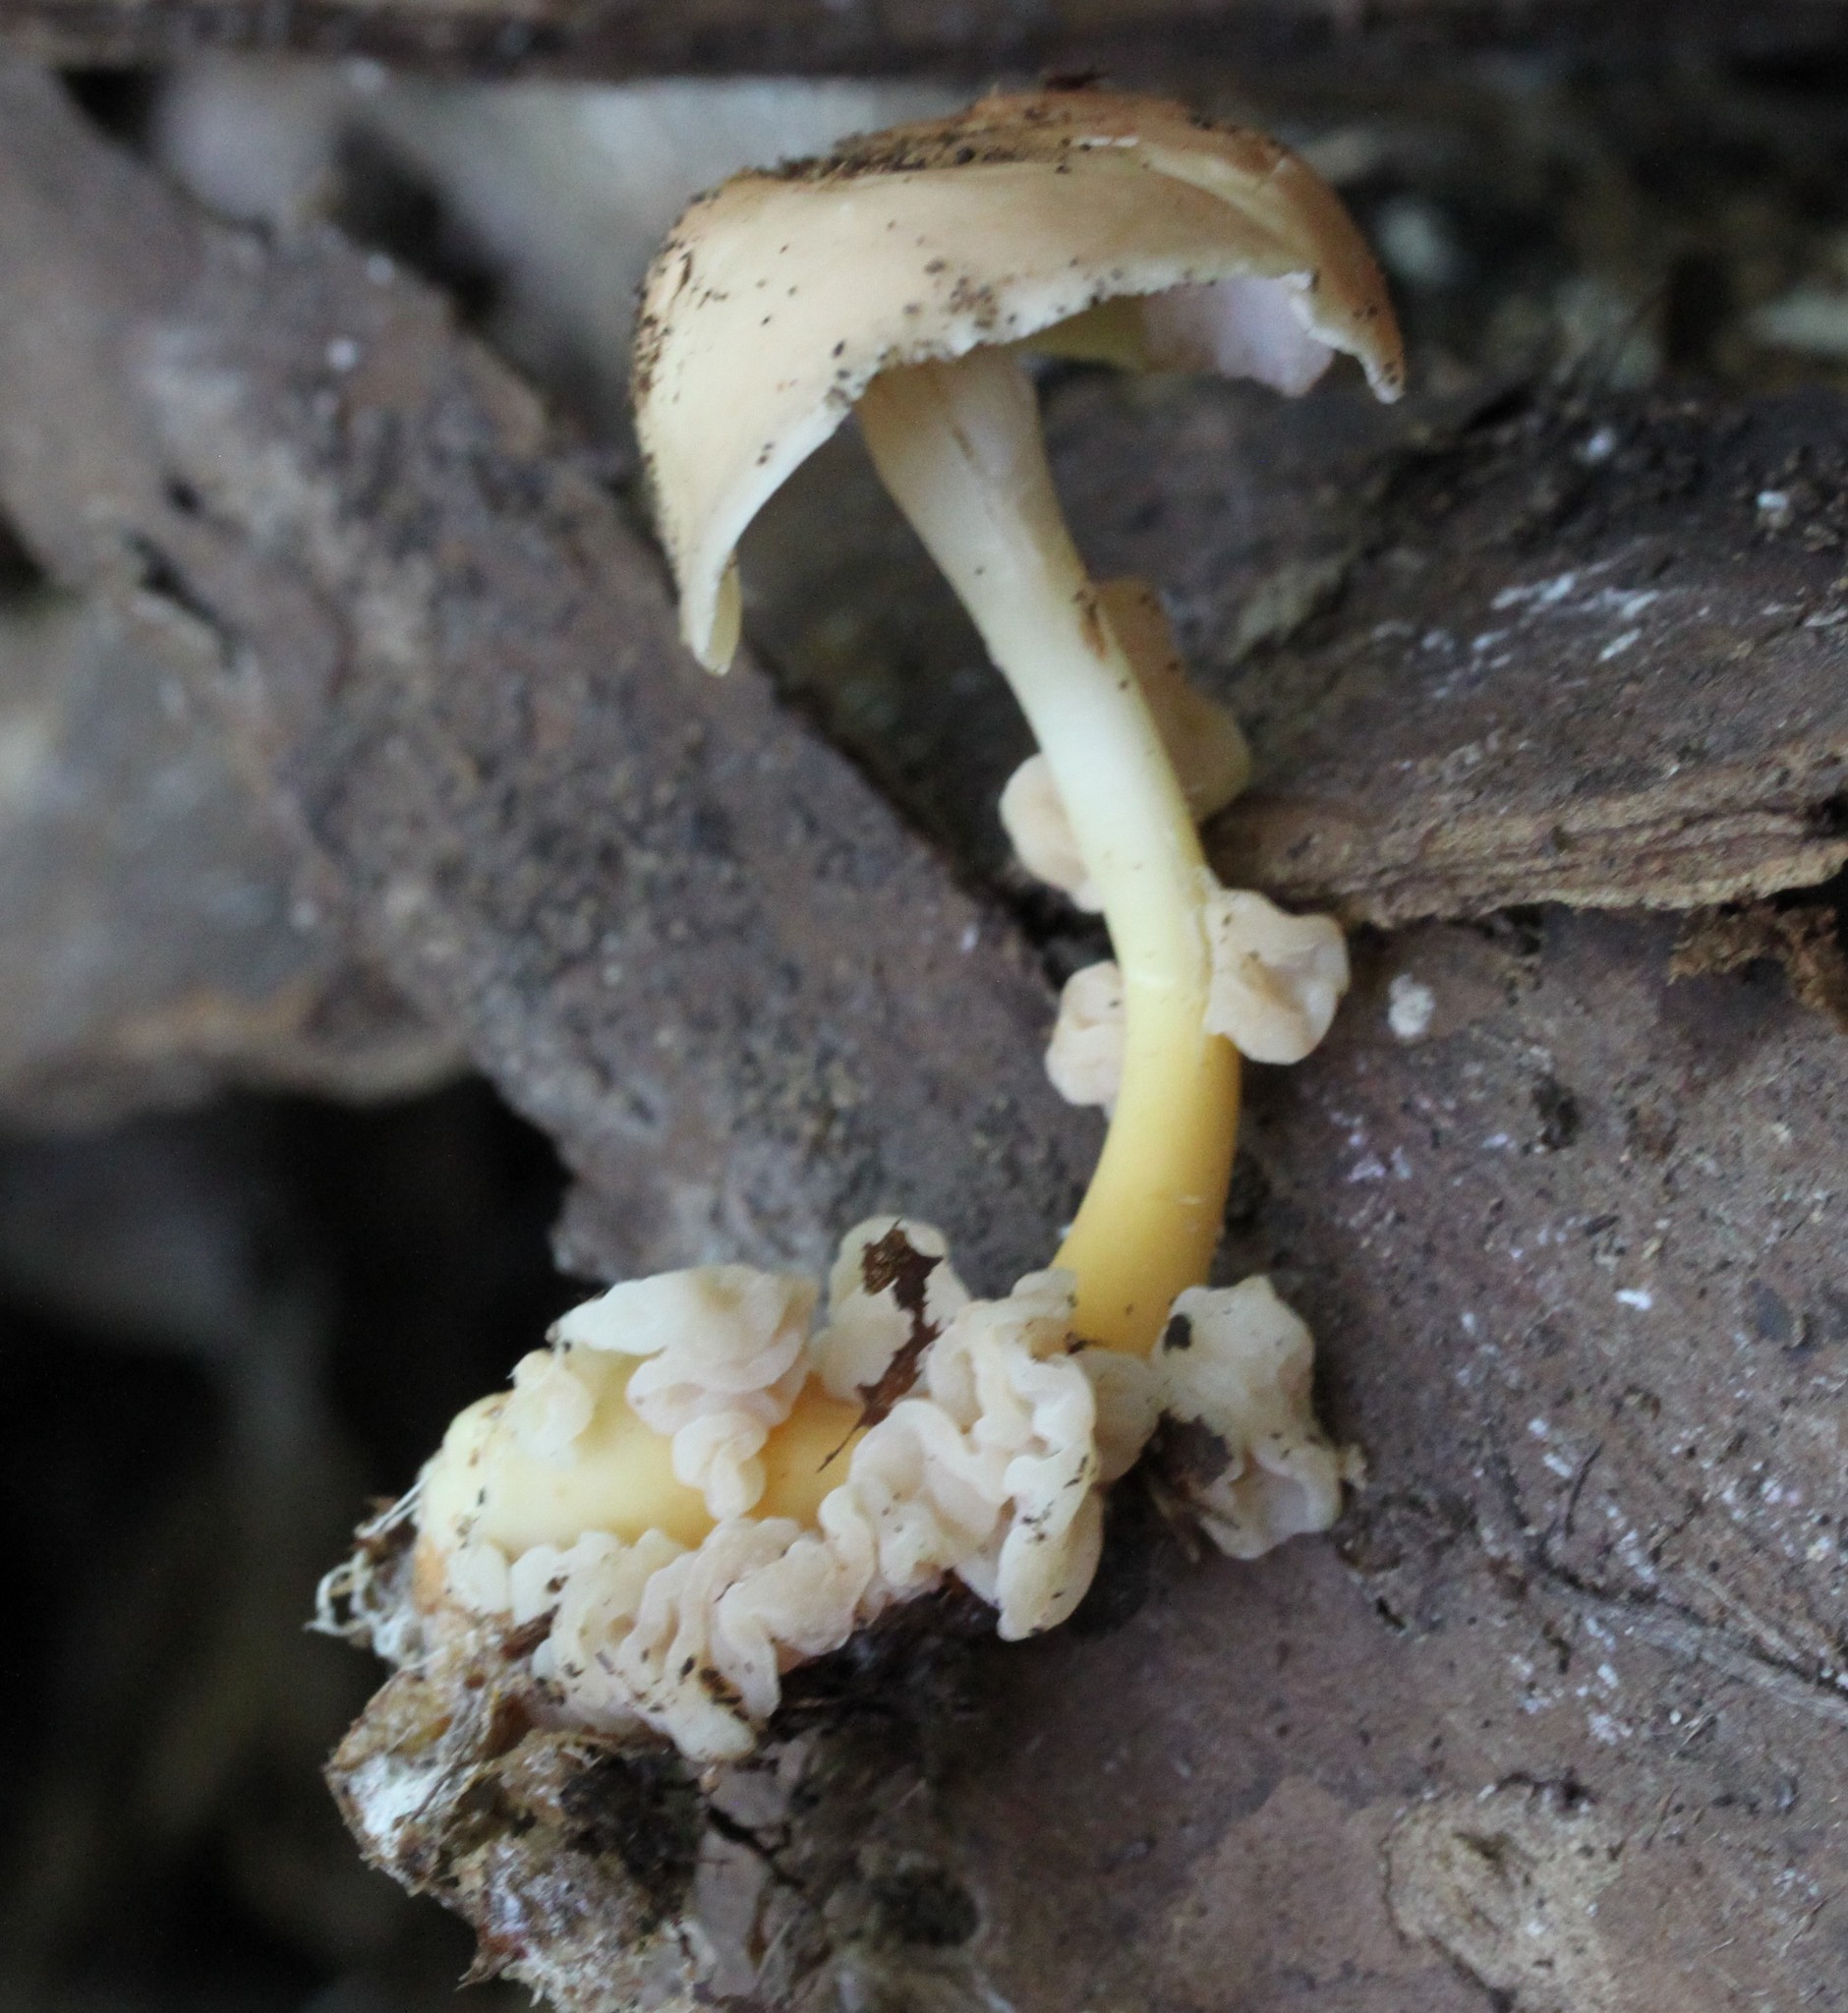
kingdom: Fungi
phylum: Basidiomycota
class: Tremellomycetes
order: Filobasidiales
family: Filobasidiaceae
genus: Syzygospora
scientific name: Syzygospora mycetophila
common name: Collybia clouds
